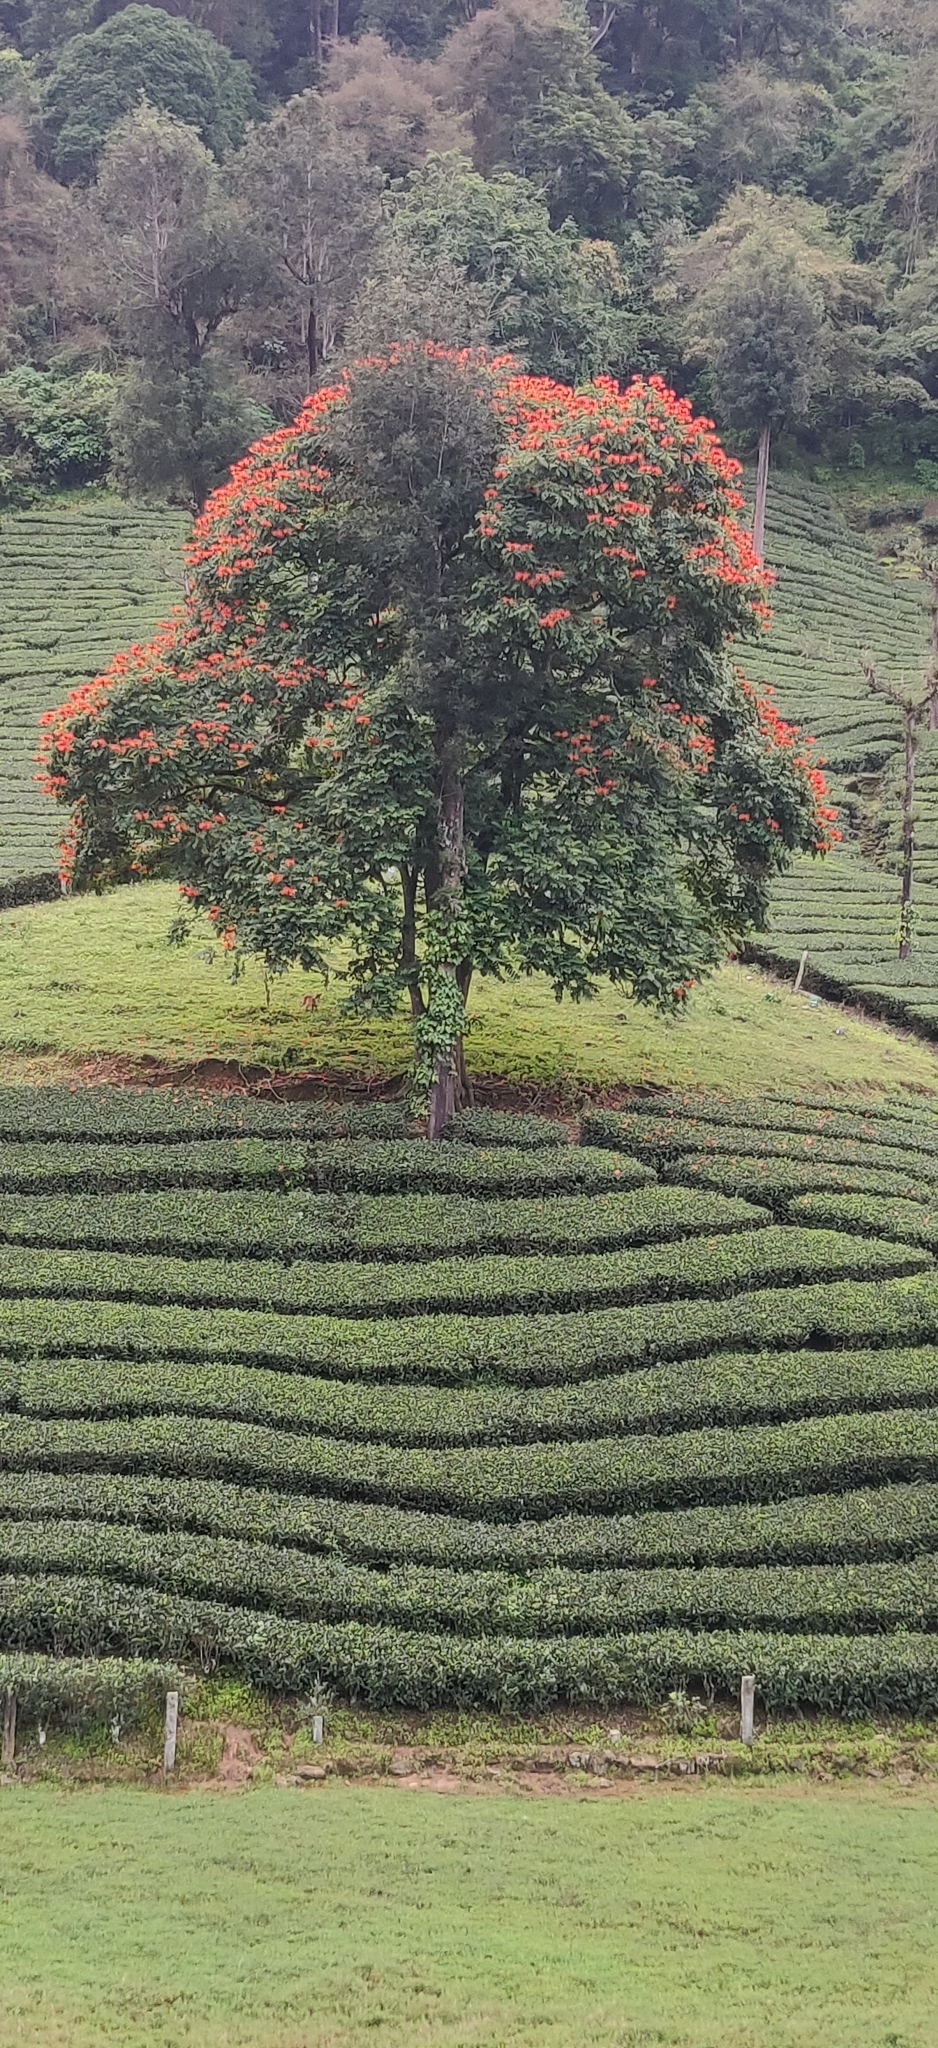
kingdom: Plantae
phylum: Tracheophyta
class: Magnoliopsida
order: Lamiales
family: Bignoniaceae
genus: Spathodea
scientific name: Spathodea campanulata
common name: African tuliptree
